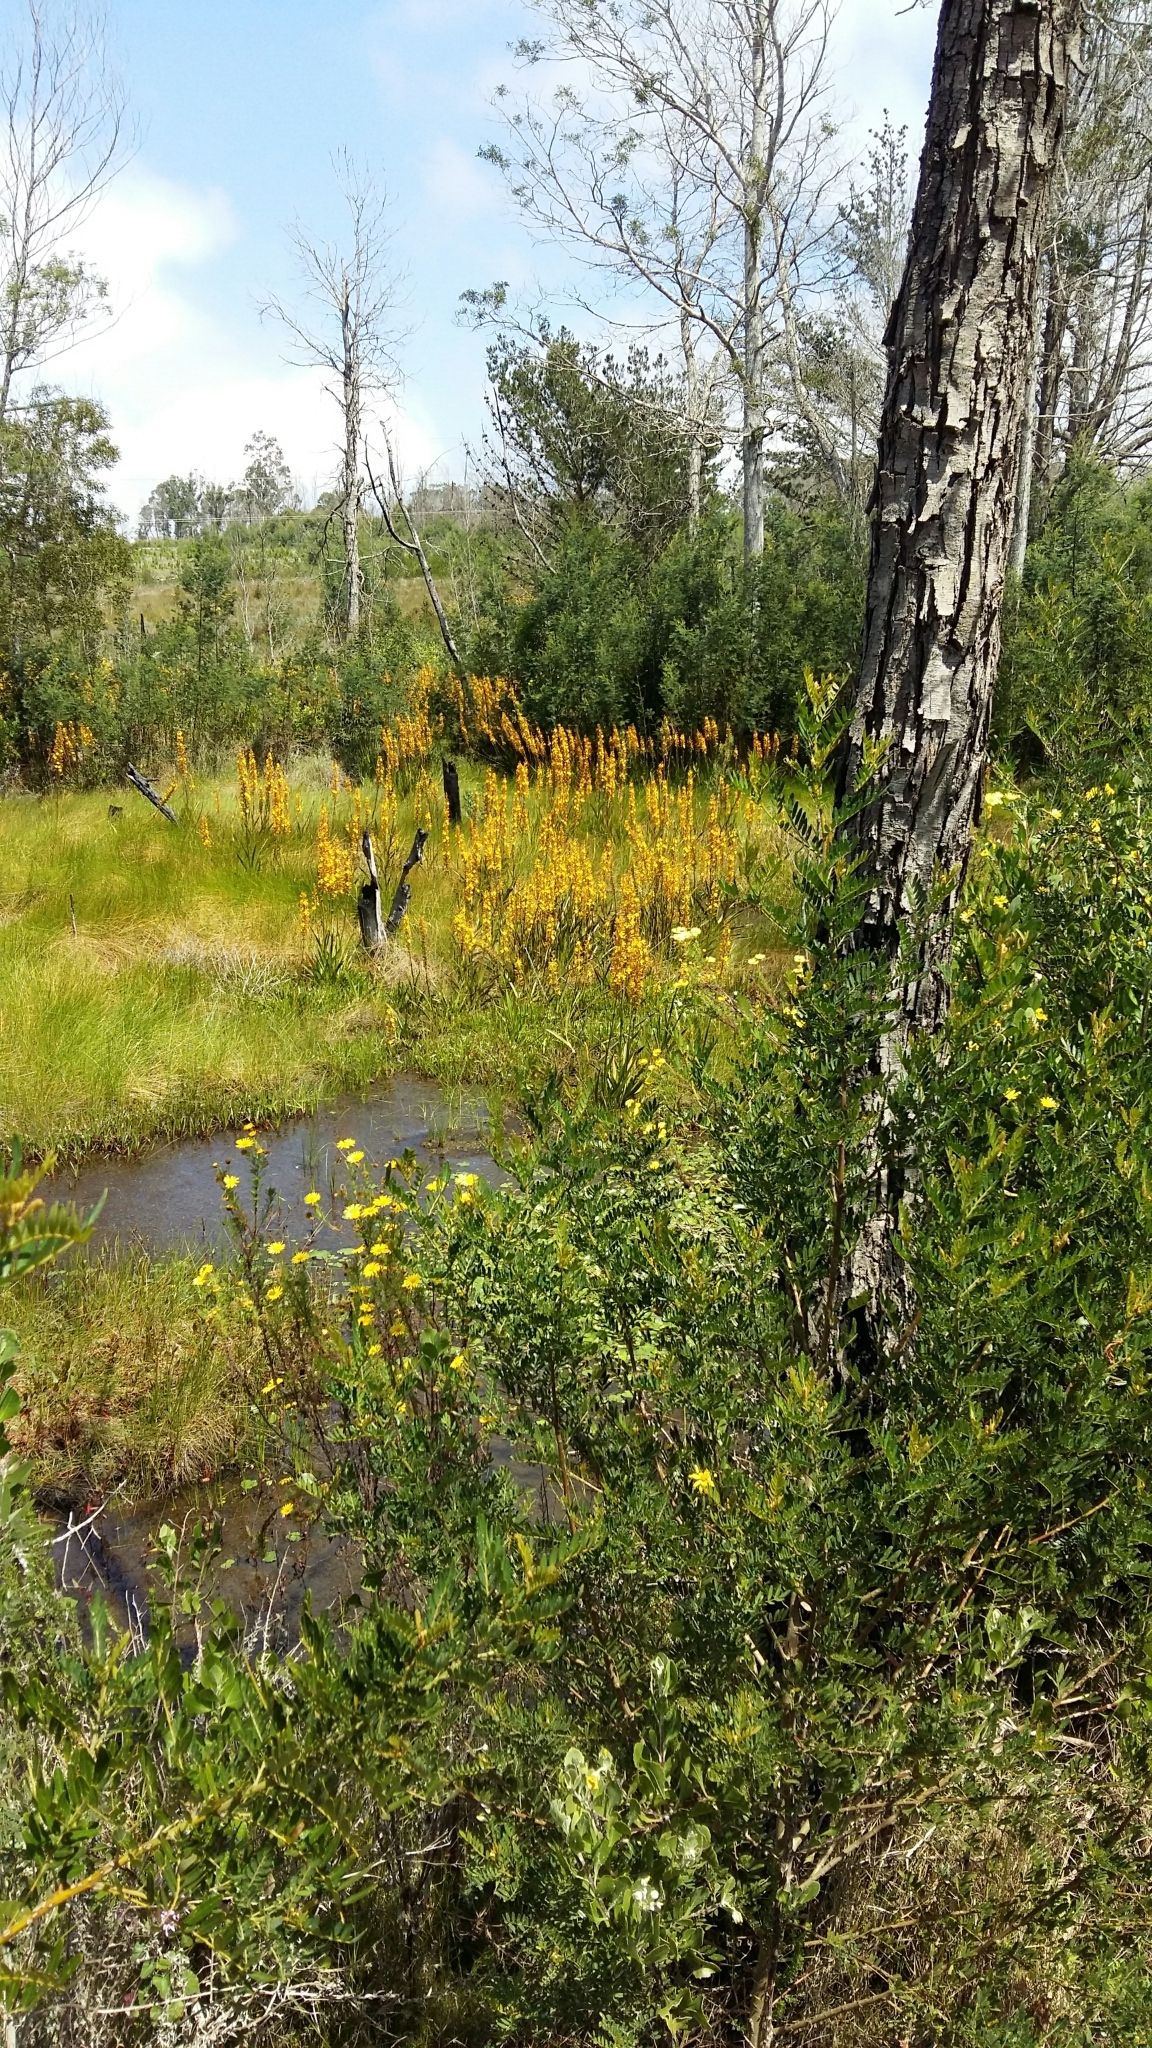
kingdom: Plantae
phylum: Tracheophyta
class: Liliopsida
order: Commelinales
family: Haemodoraceae
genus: Wachendorfia
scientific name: Wachendorfia thyrsiflora
